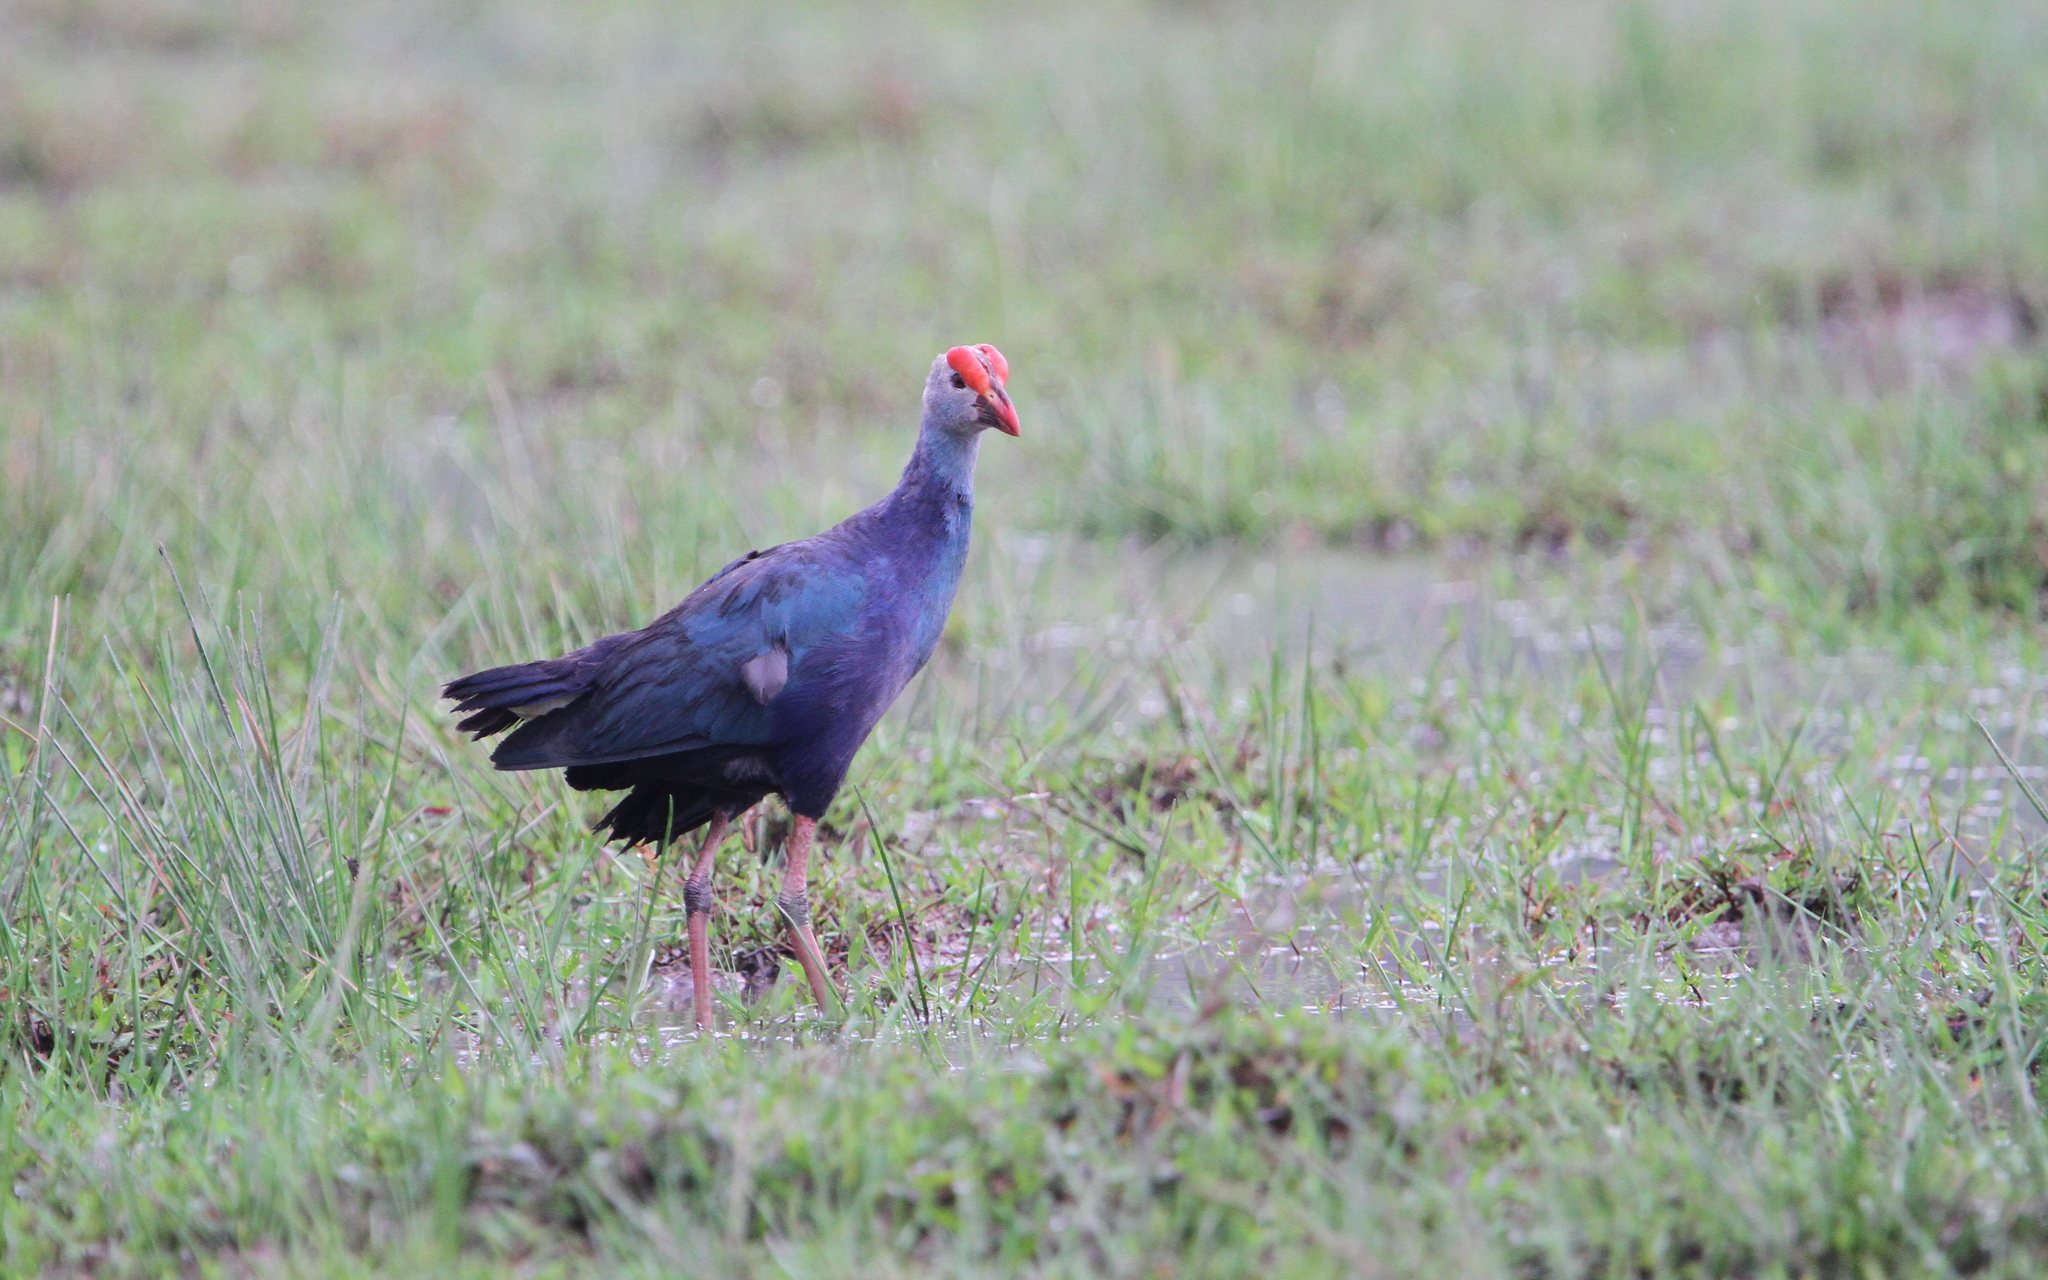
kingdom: Animalia
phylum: Chordata
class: Aves
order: Gruiformes
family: Rallidae
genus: Porphyrio
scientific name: Porphyrio porphyrio
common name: Purple swamphen
